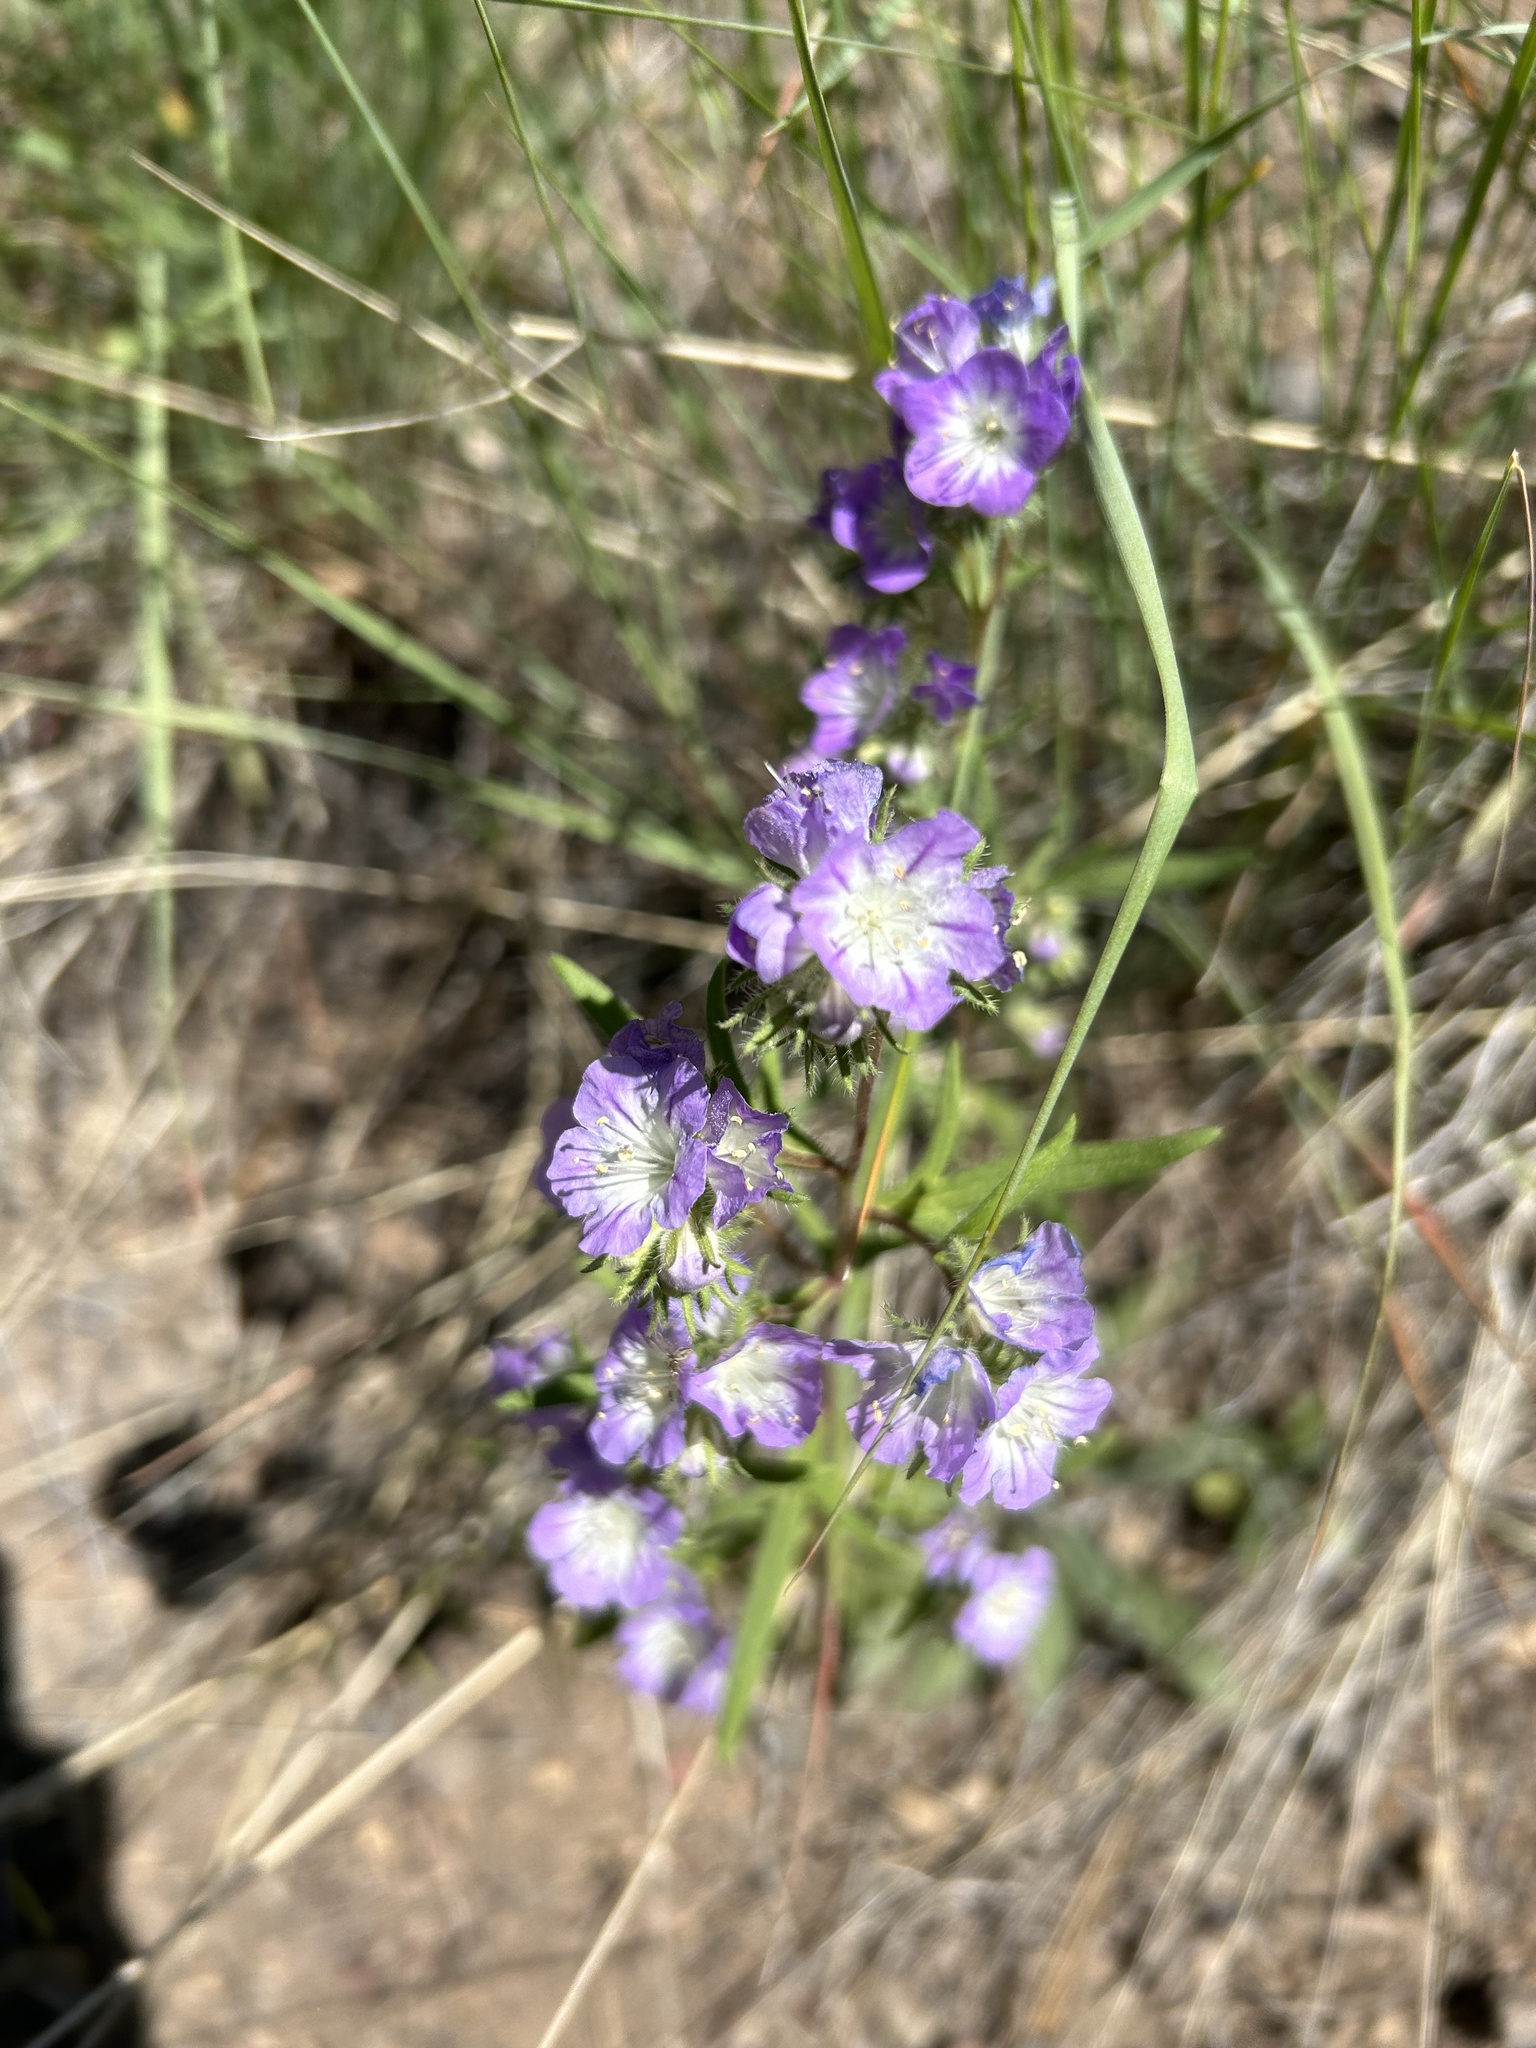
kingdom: Plantae
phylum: Tracheophyta
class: Magnoliopsida
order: Boraginales
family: Hydrophyllaceae
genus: Phacelia
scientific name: Phacelia linearis
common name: Linear-leaved phacelia
